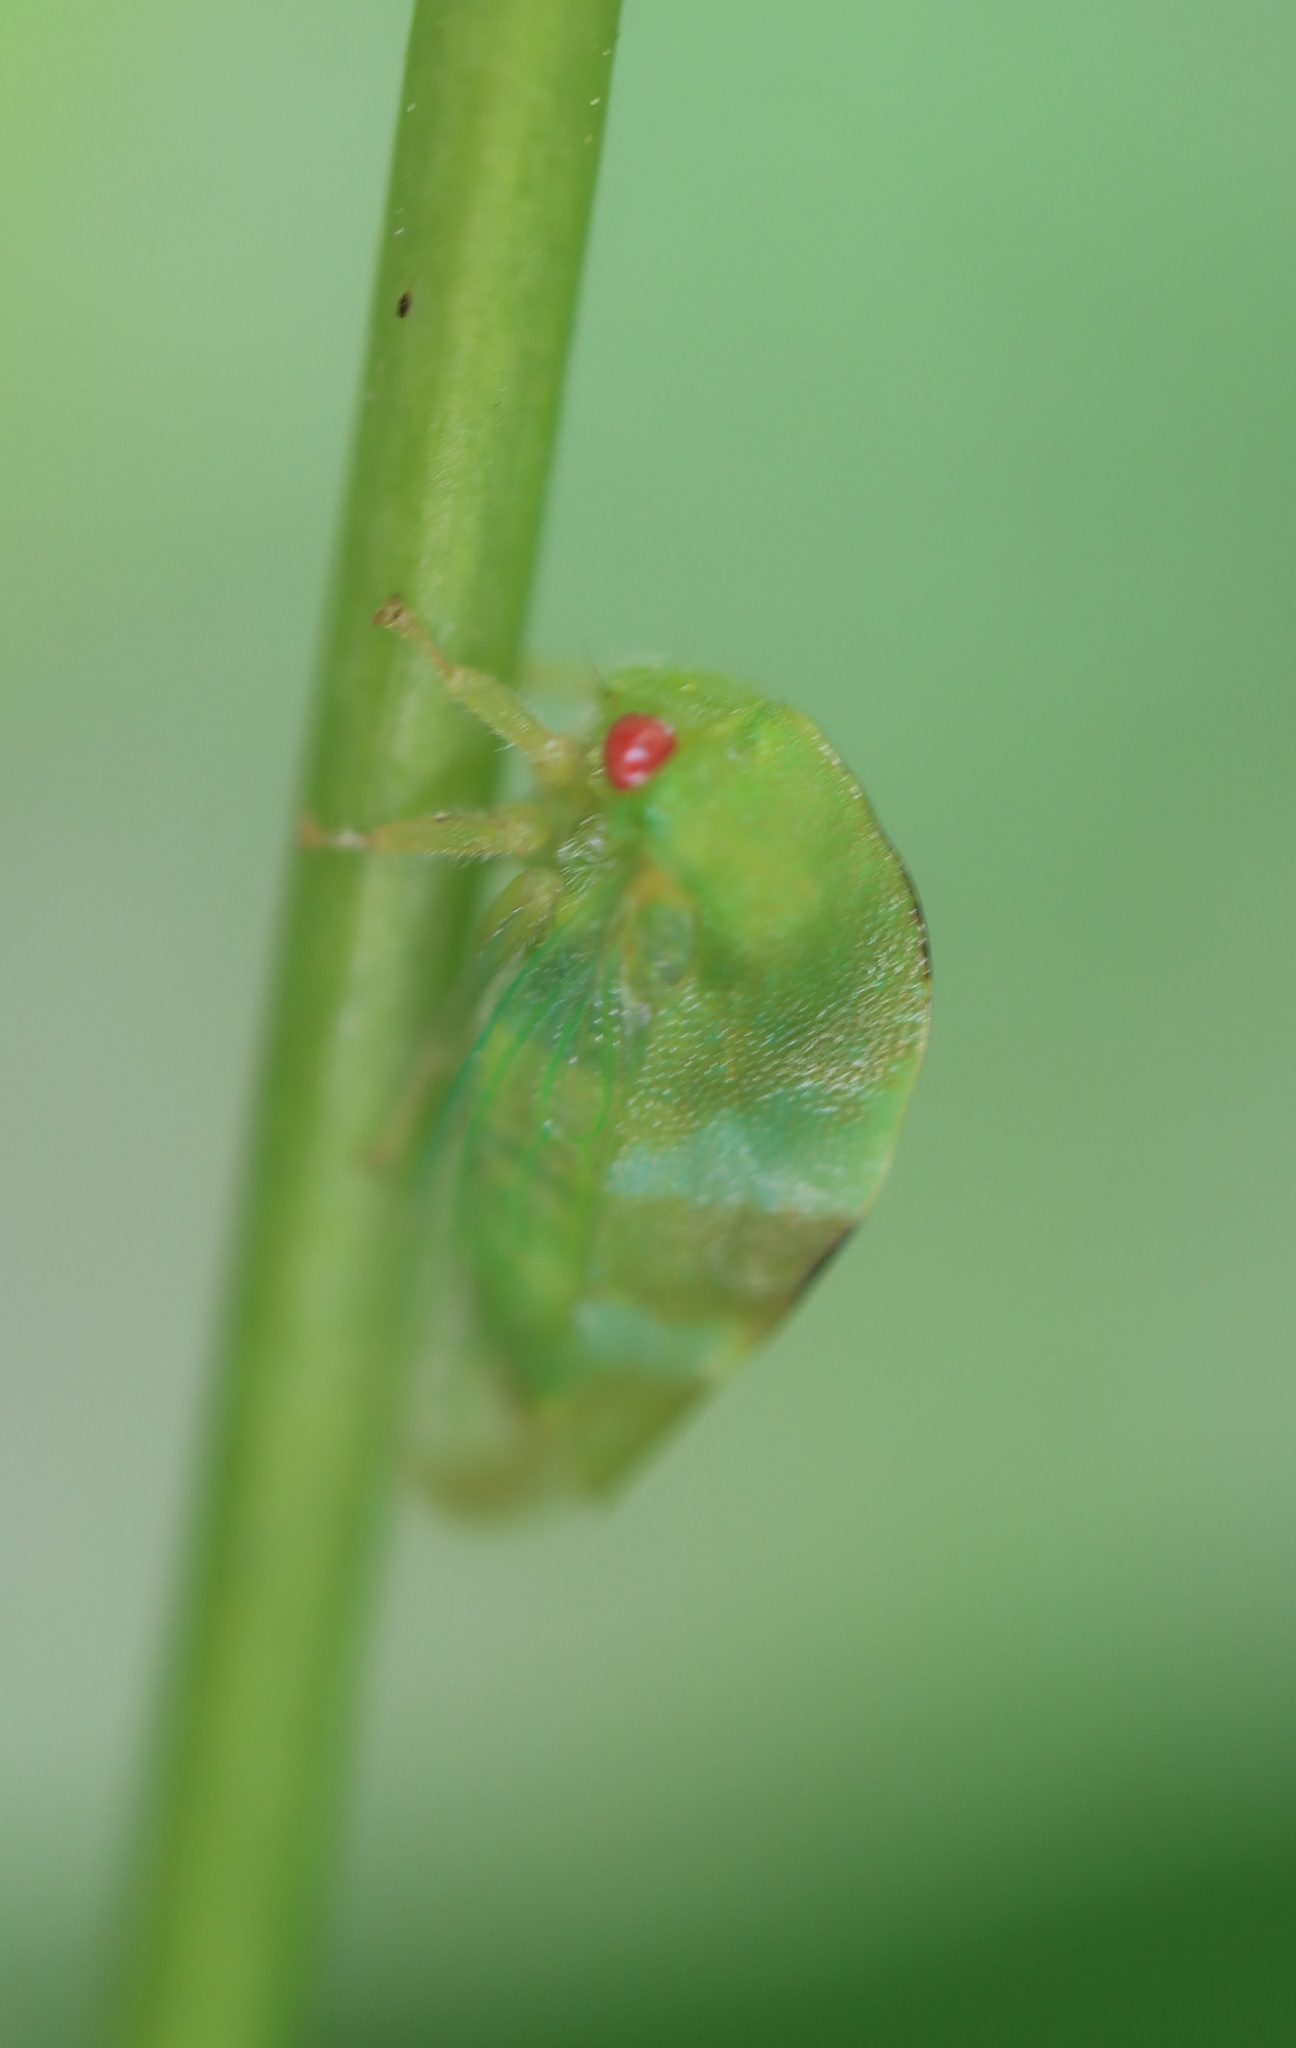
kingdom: Animalia
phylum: Arthropoda
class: Insecta
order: Hemiptera
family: Membracidae
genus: Cyrtolobus
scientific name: Cyrtolobus auroreus
